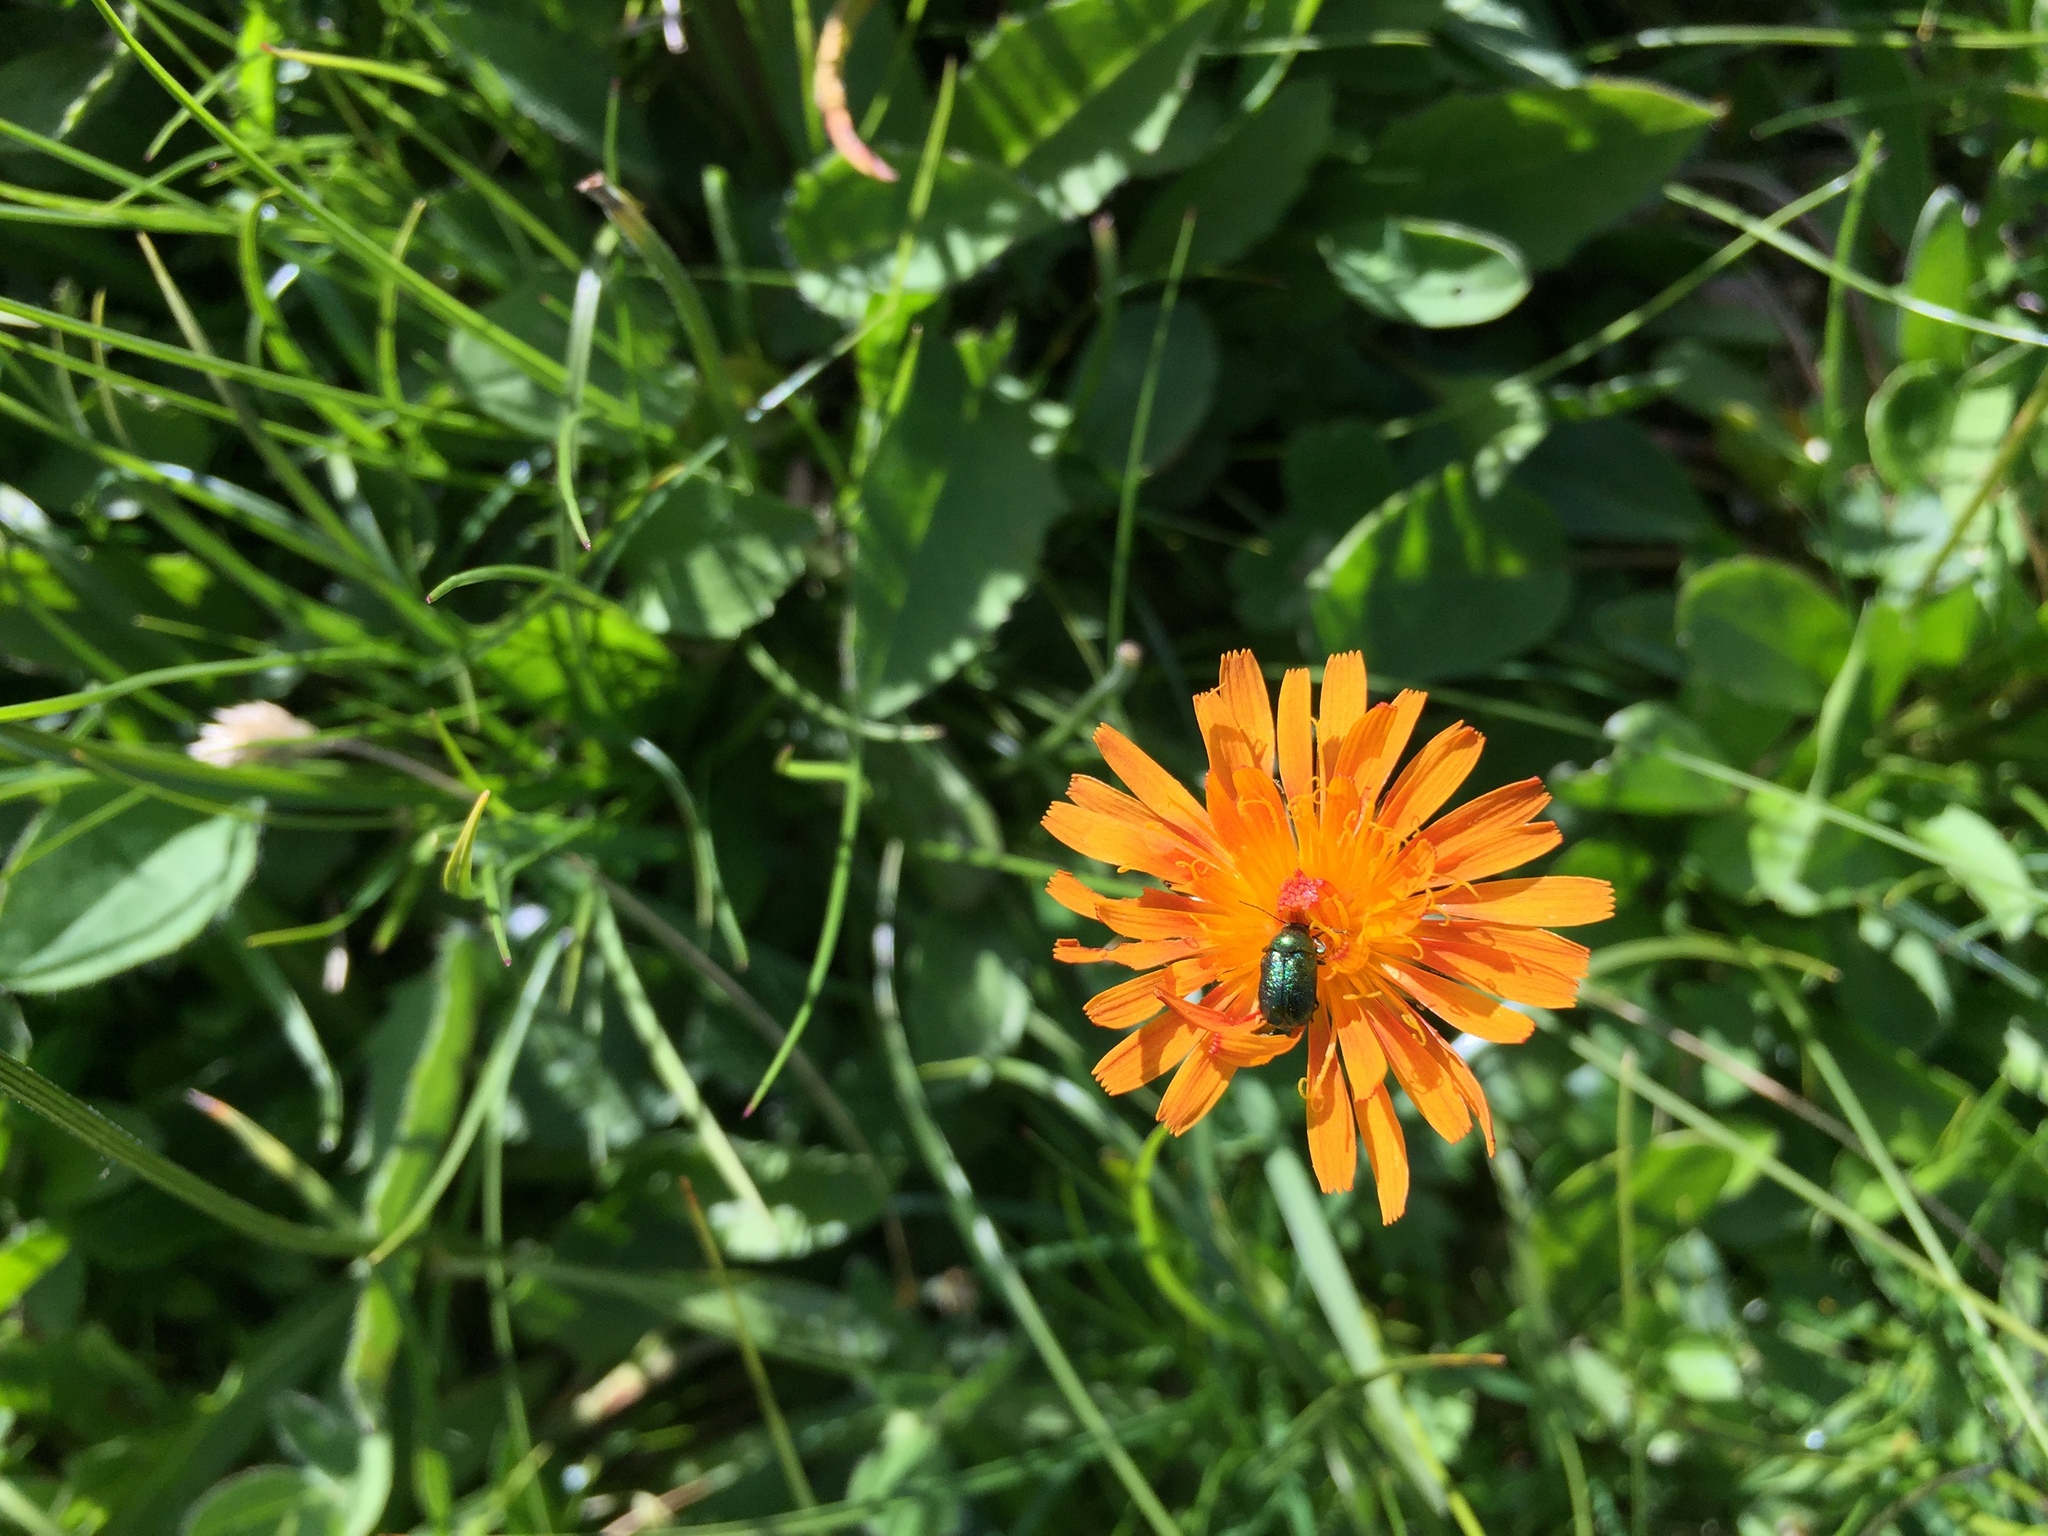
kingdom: Plantae
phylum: Tracheophyta
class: Magnoliopsida
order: Asterales
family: Asteraceae
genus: Crepis
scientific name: Crepis aurea
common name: Golden hawk's-beard
